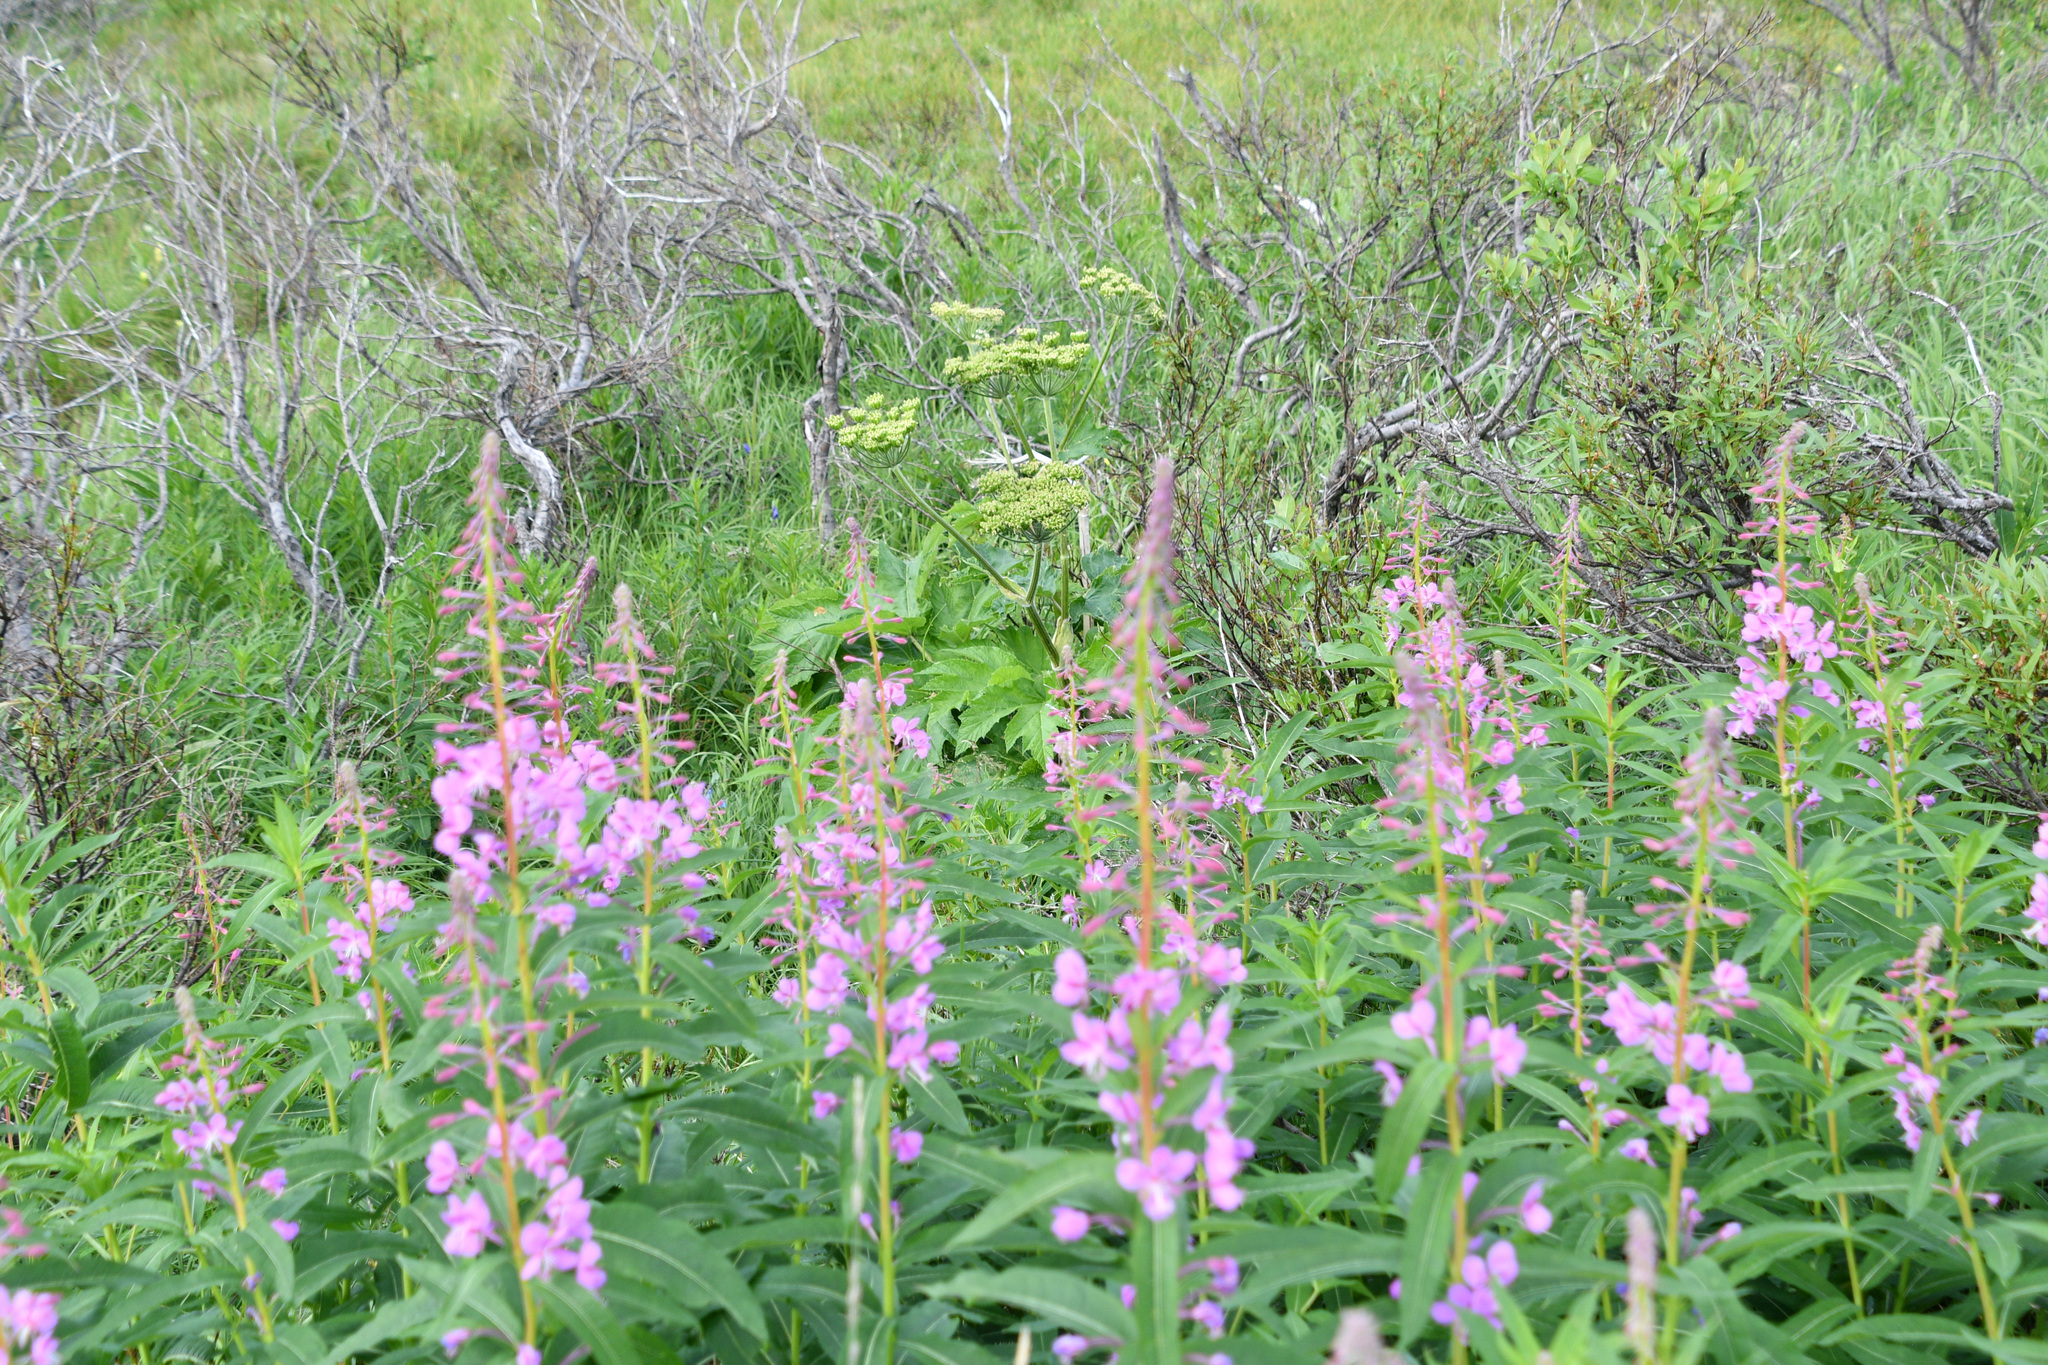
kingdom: Plantae
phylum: Tracheophyta
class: Magnoliopsida
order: Myrtales
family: Onagraceae
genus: Chamaenerion
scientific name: Chamaenerion angustifolium
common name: Fireweed
